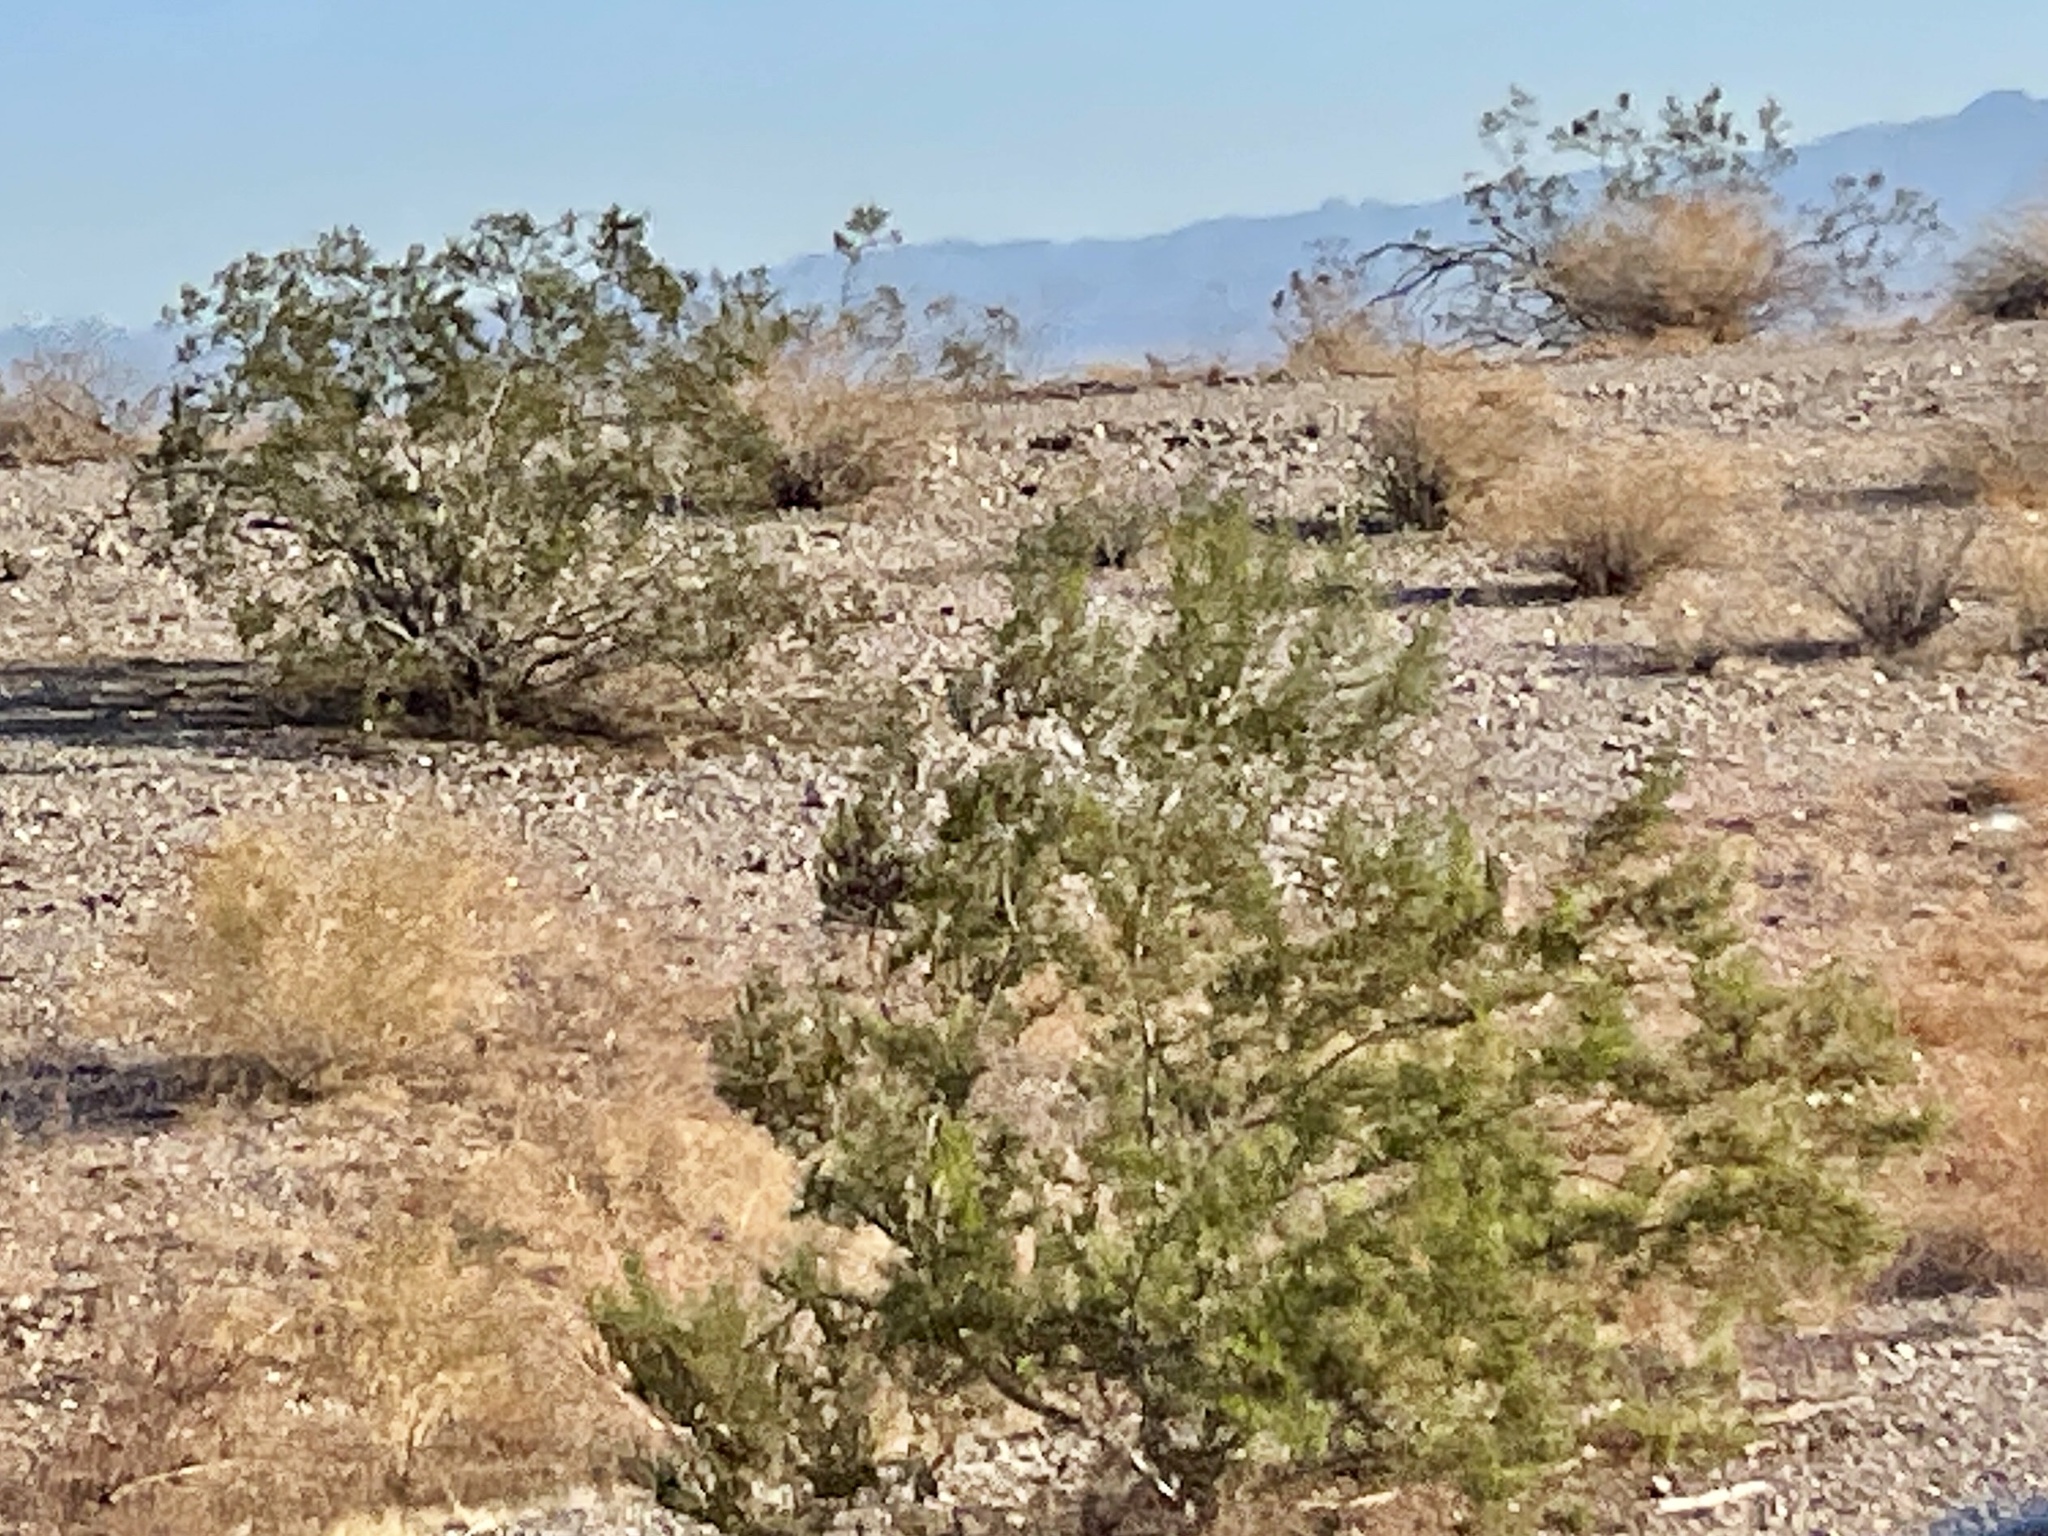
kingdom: Plantae
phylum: Tracheophyta
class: Magnoliopsida
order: Zygophyllales
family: Zygophyllaceae
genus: Larrea
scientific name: Larrea tridentata
